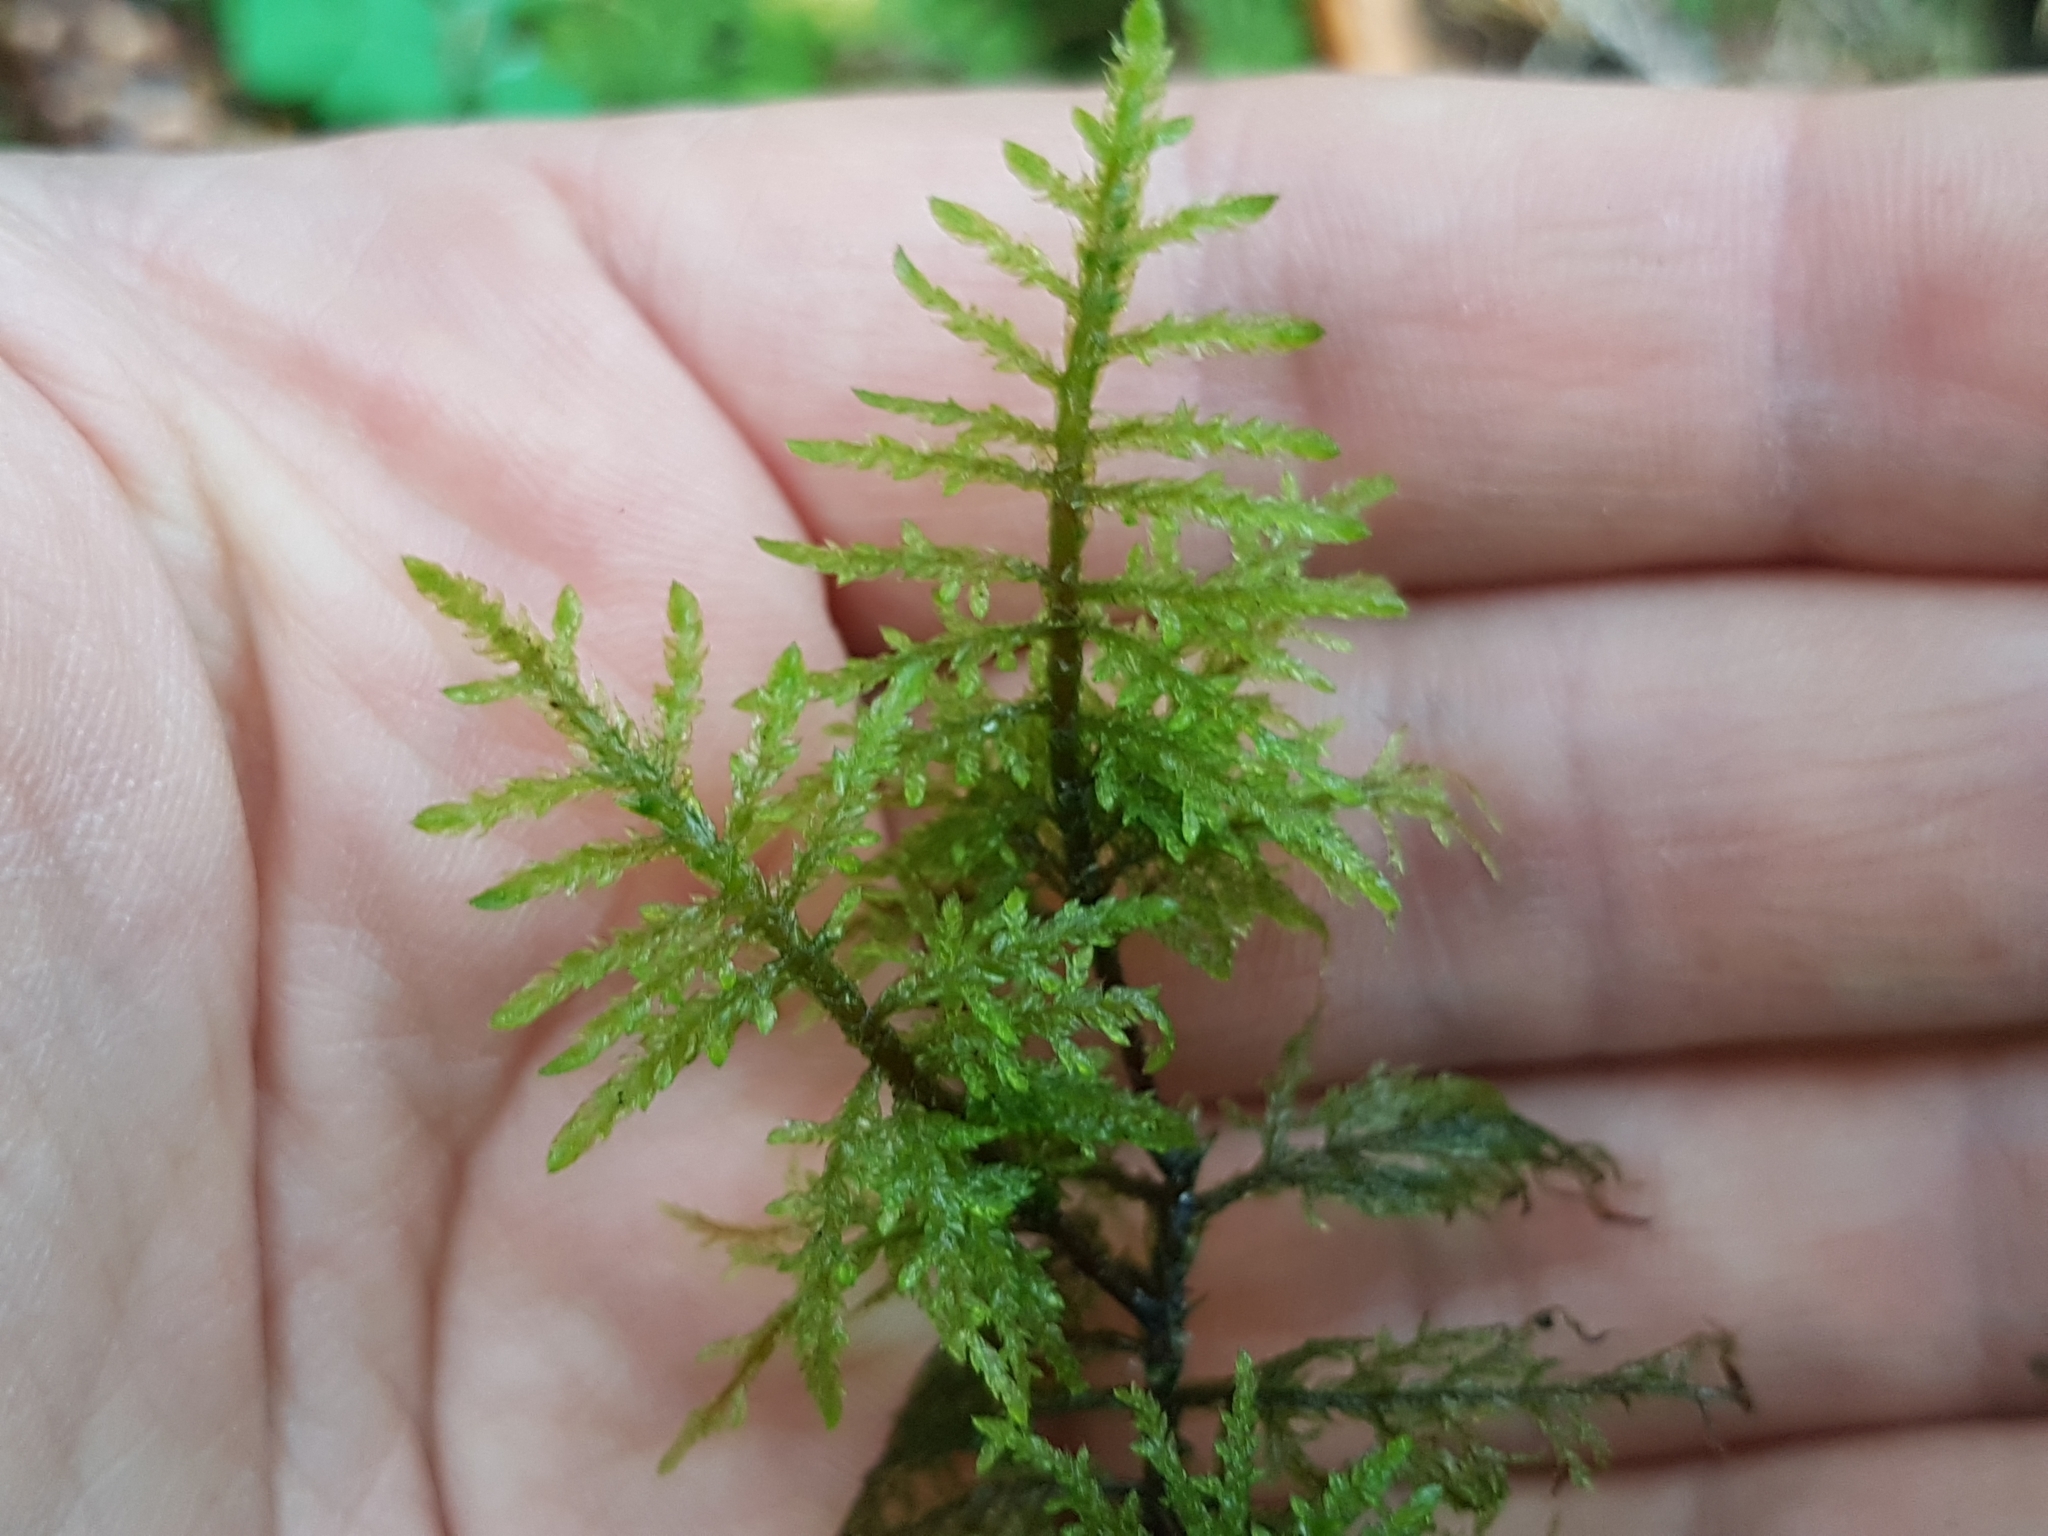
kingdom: Plantae
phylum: Bryophyta
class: Bryopsida
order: Hypnales
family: Hylocomiaceae
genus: Hylocomium
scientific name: Hylocomium splendens
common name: Stairstep moss
